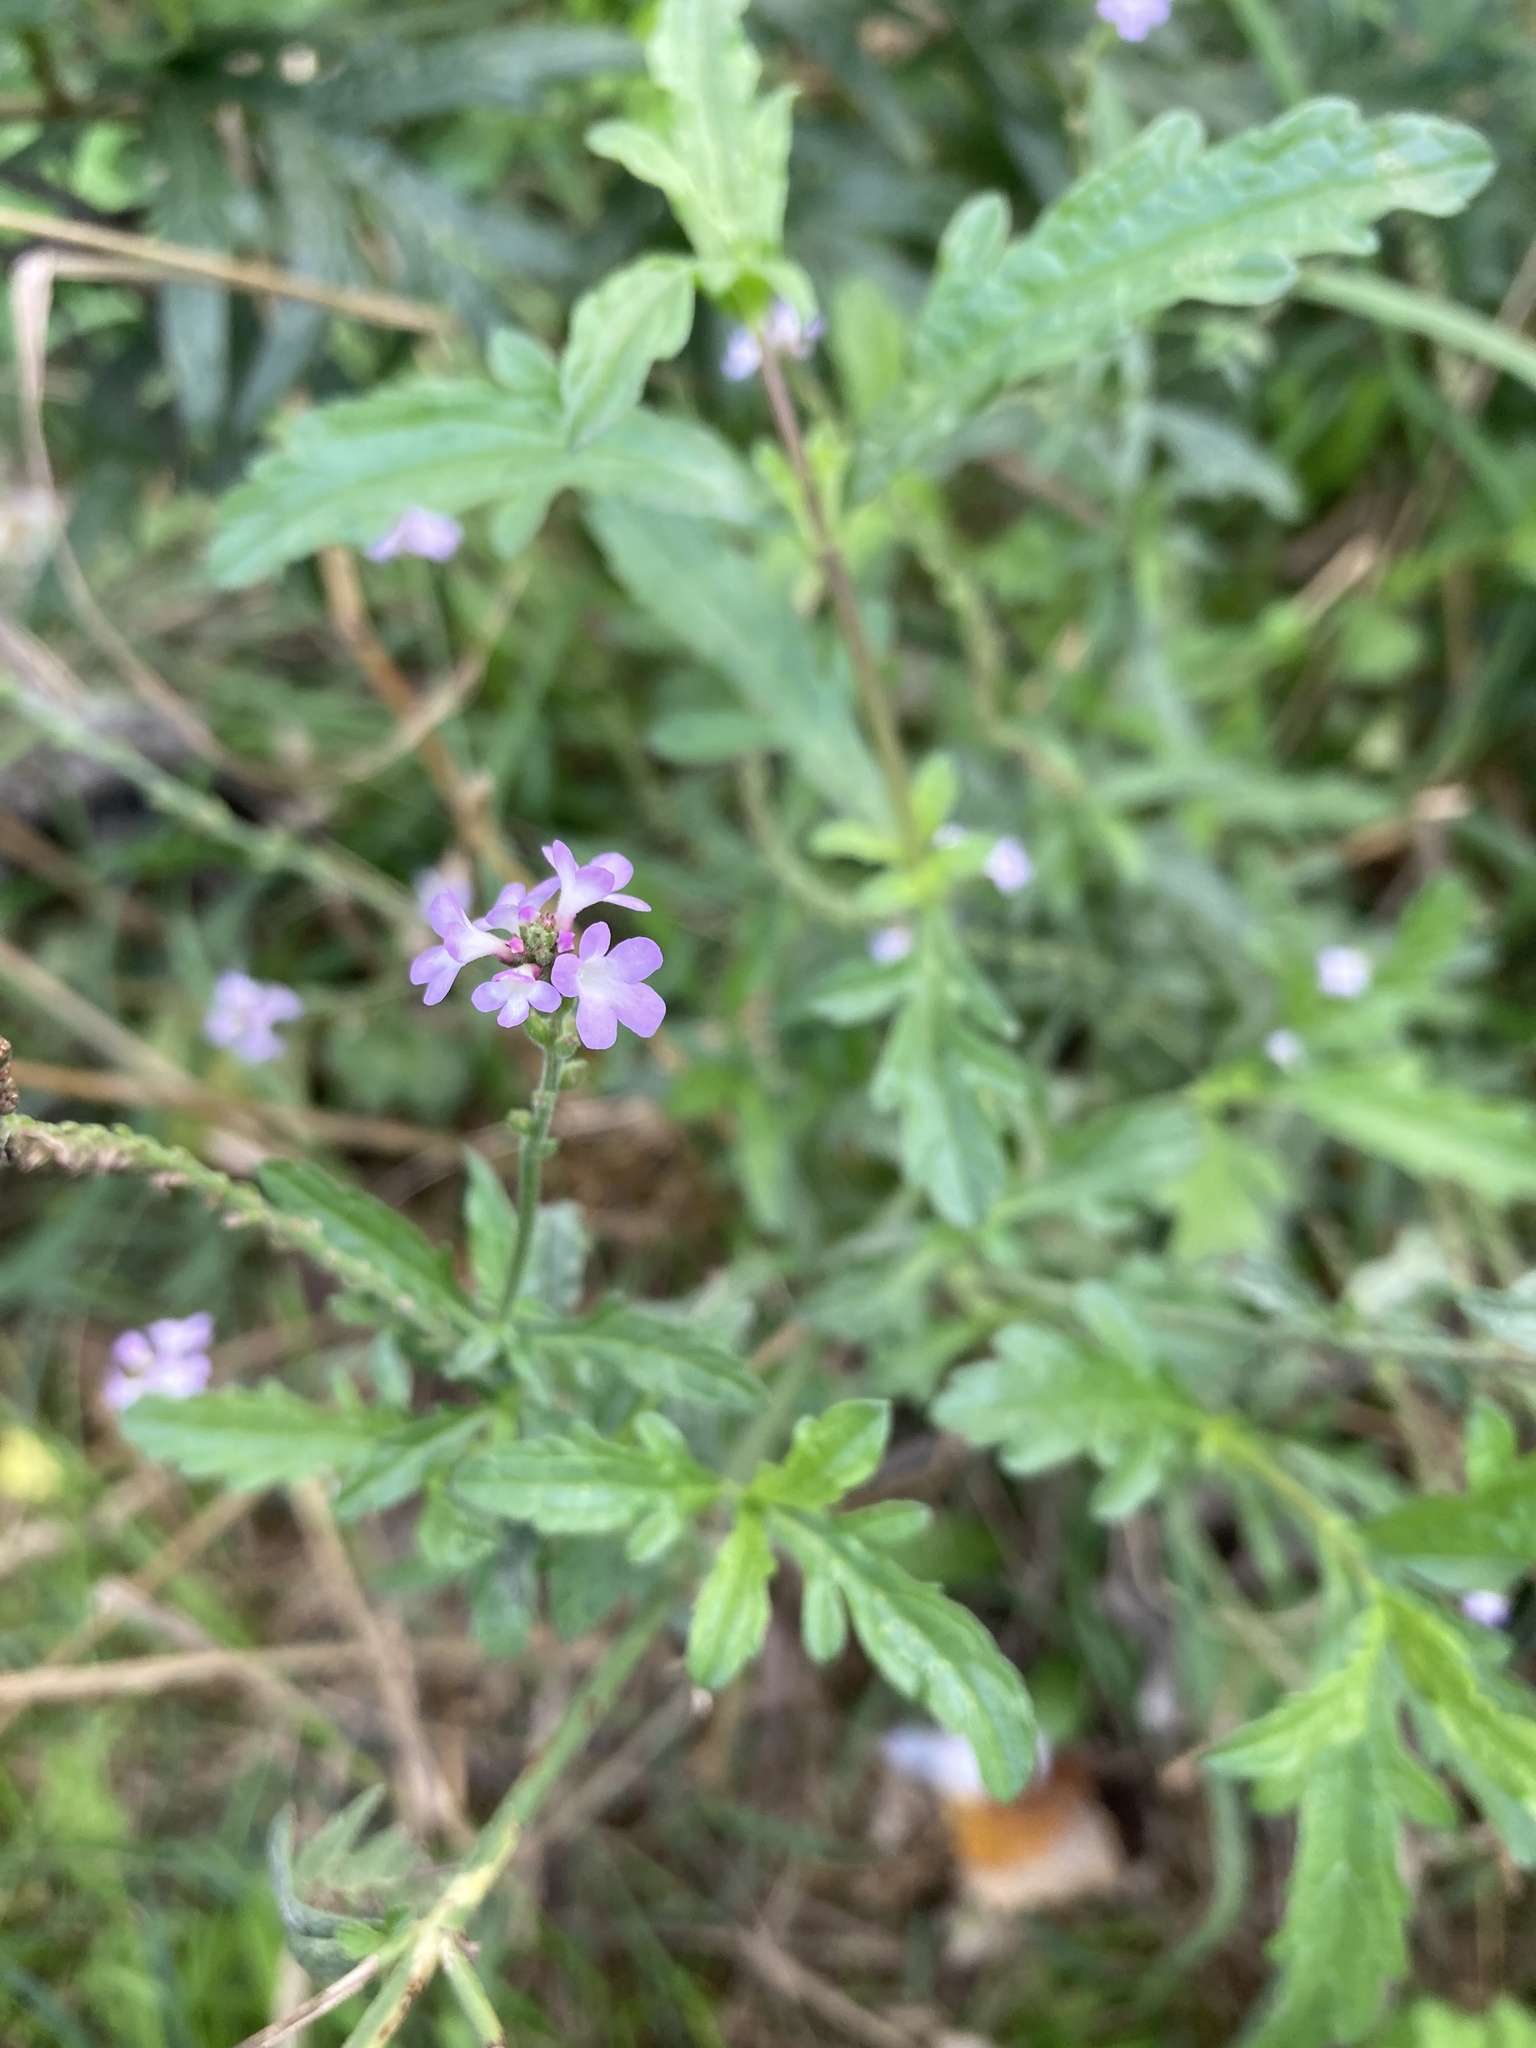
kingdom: Plantae
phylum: Tracheophyta
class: Magnoliopsida
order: Lamiales
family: Verbenaceae
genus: Verbena
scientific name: Verbena officinalis
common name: Vervain
